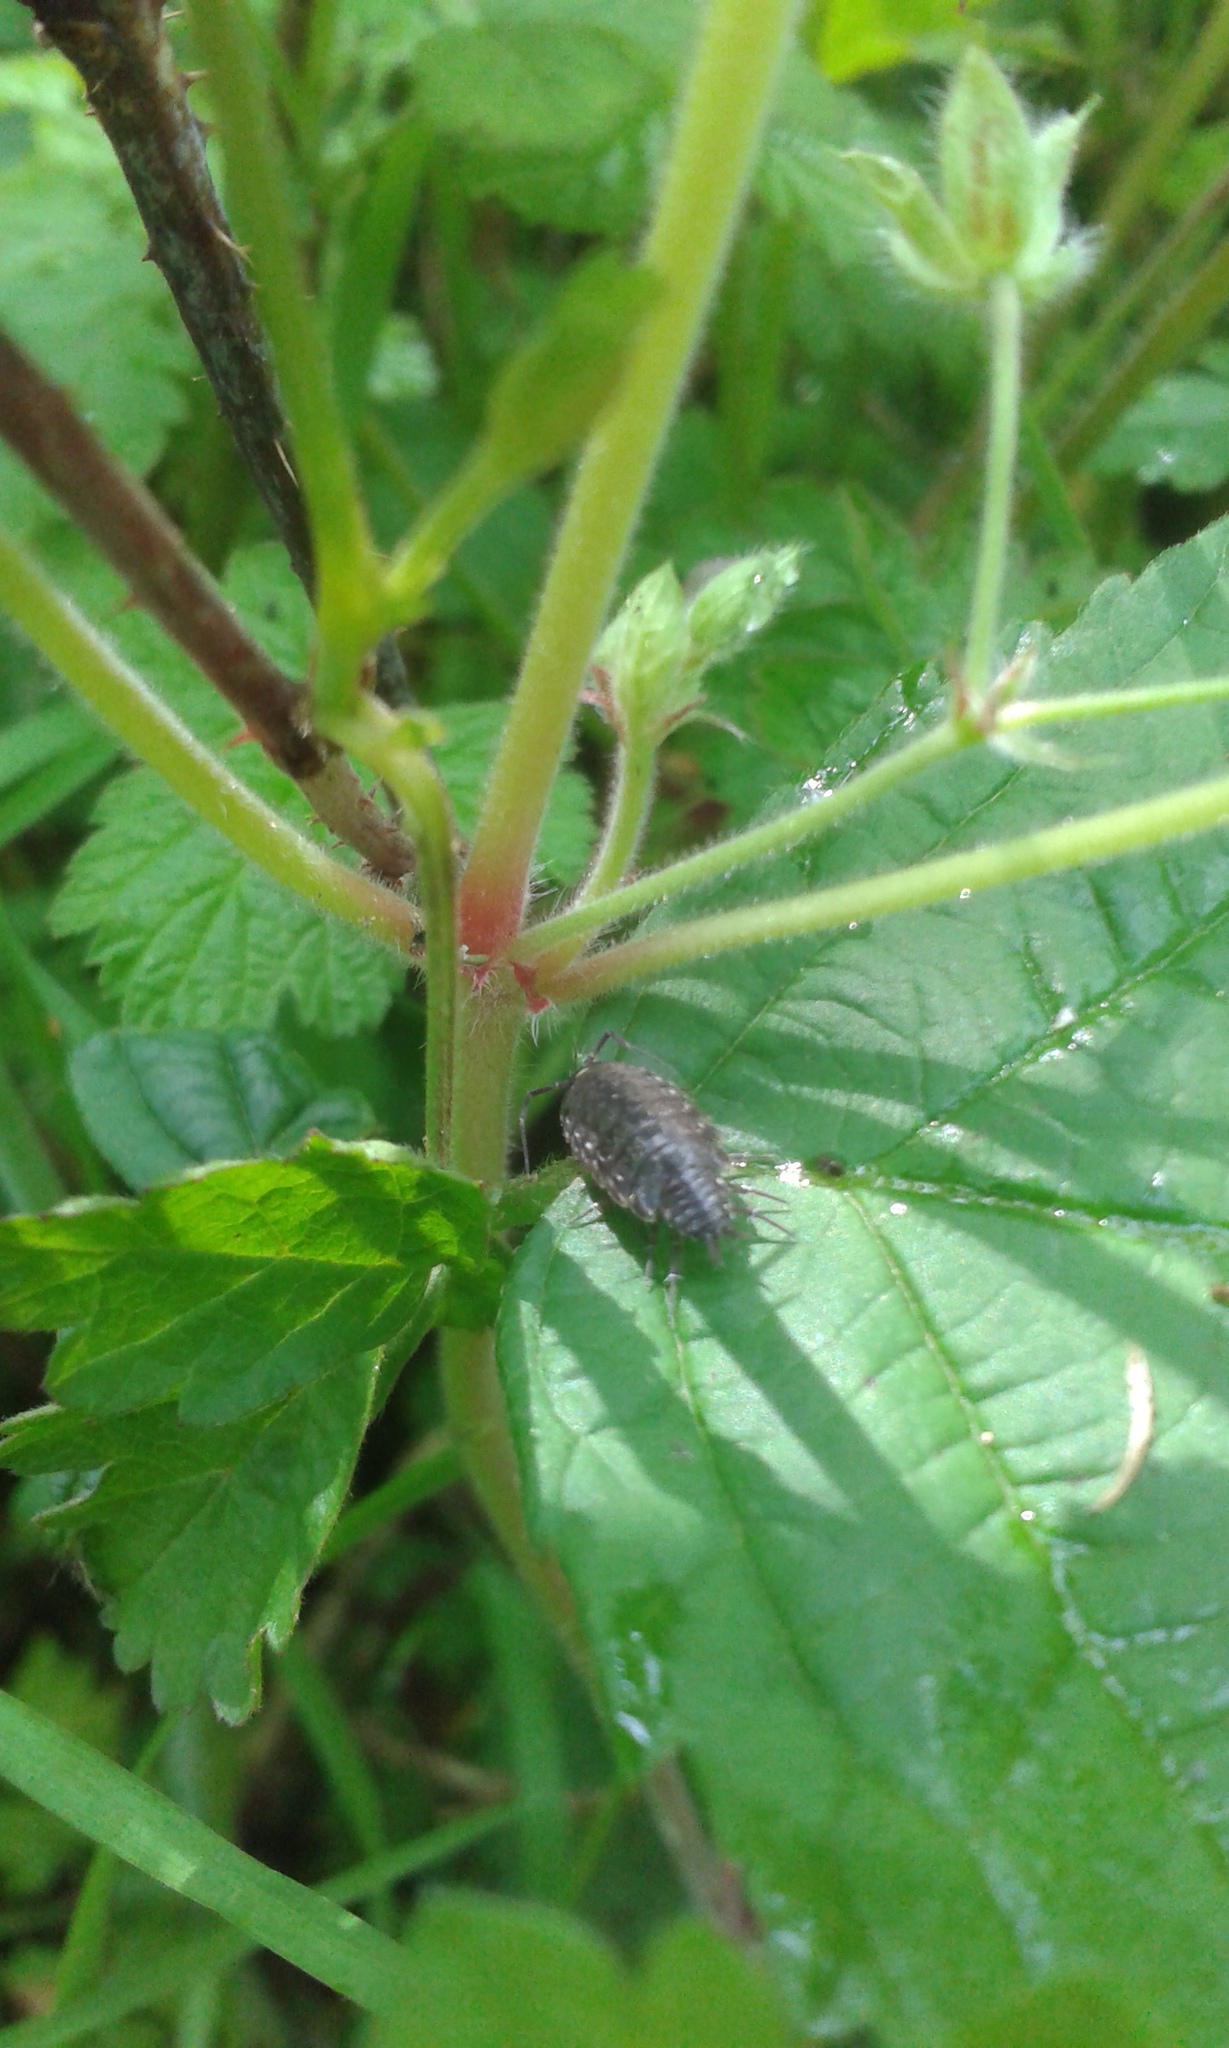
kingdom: Animalia
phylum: Arthropoda
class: Malacostraca
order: Isopoda
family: Philosciidae
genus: Philoscia
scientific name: Philoscia muscorum
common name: Common striped woodlouse
